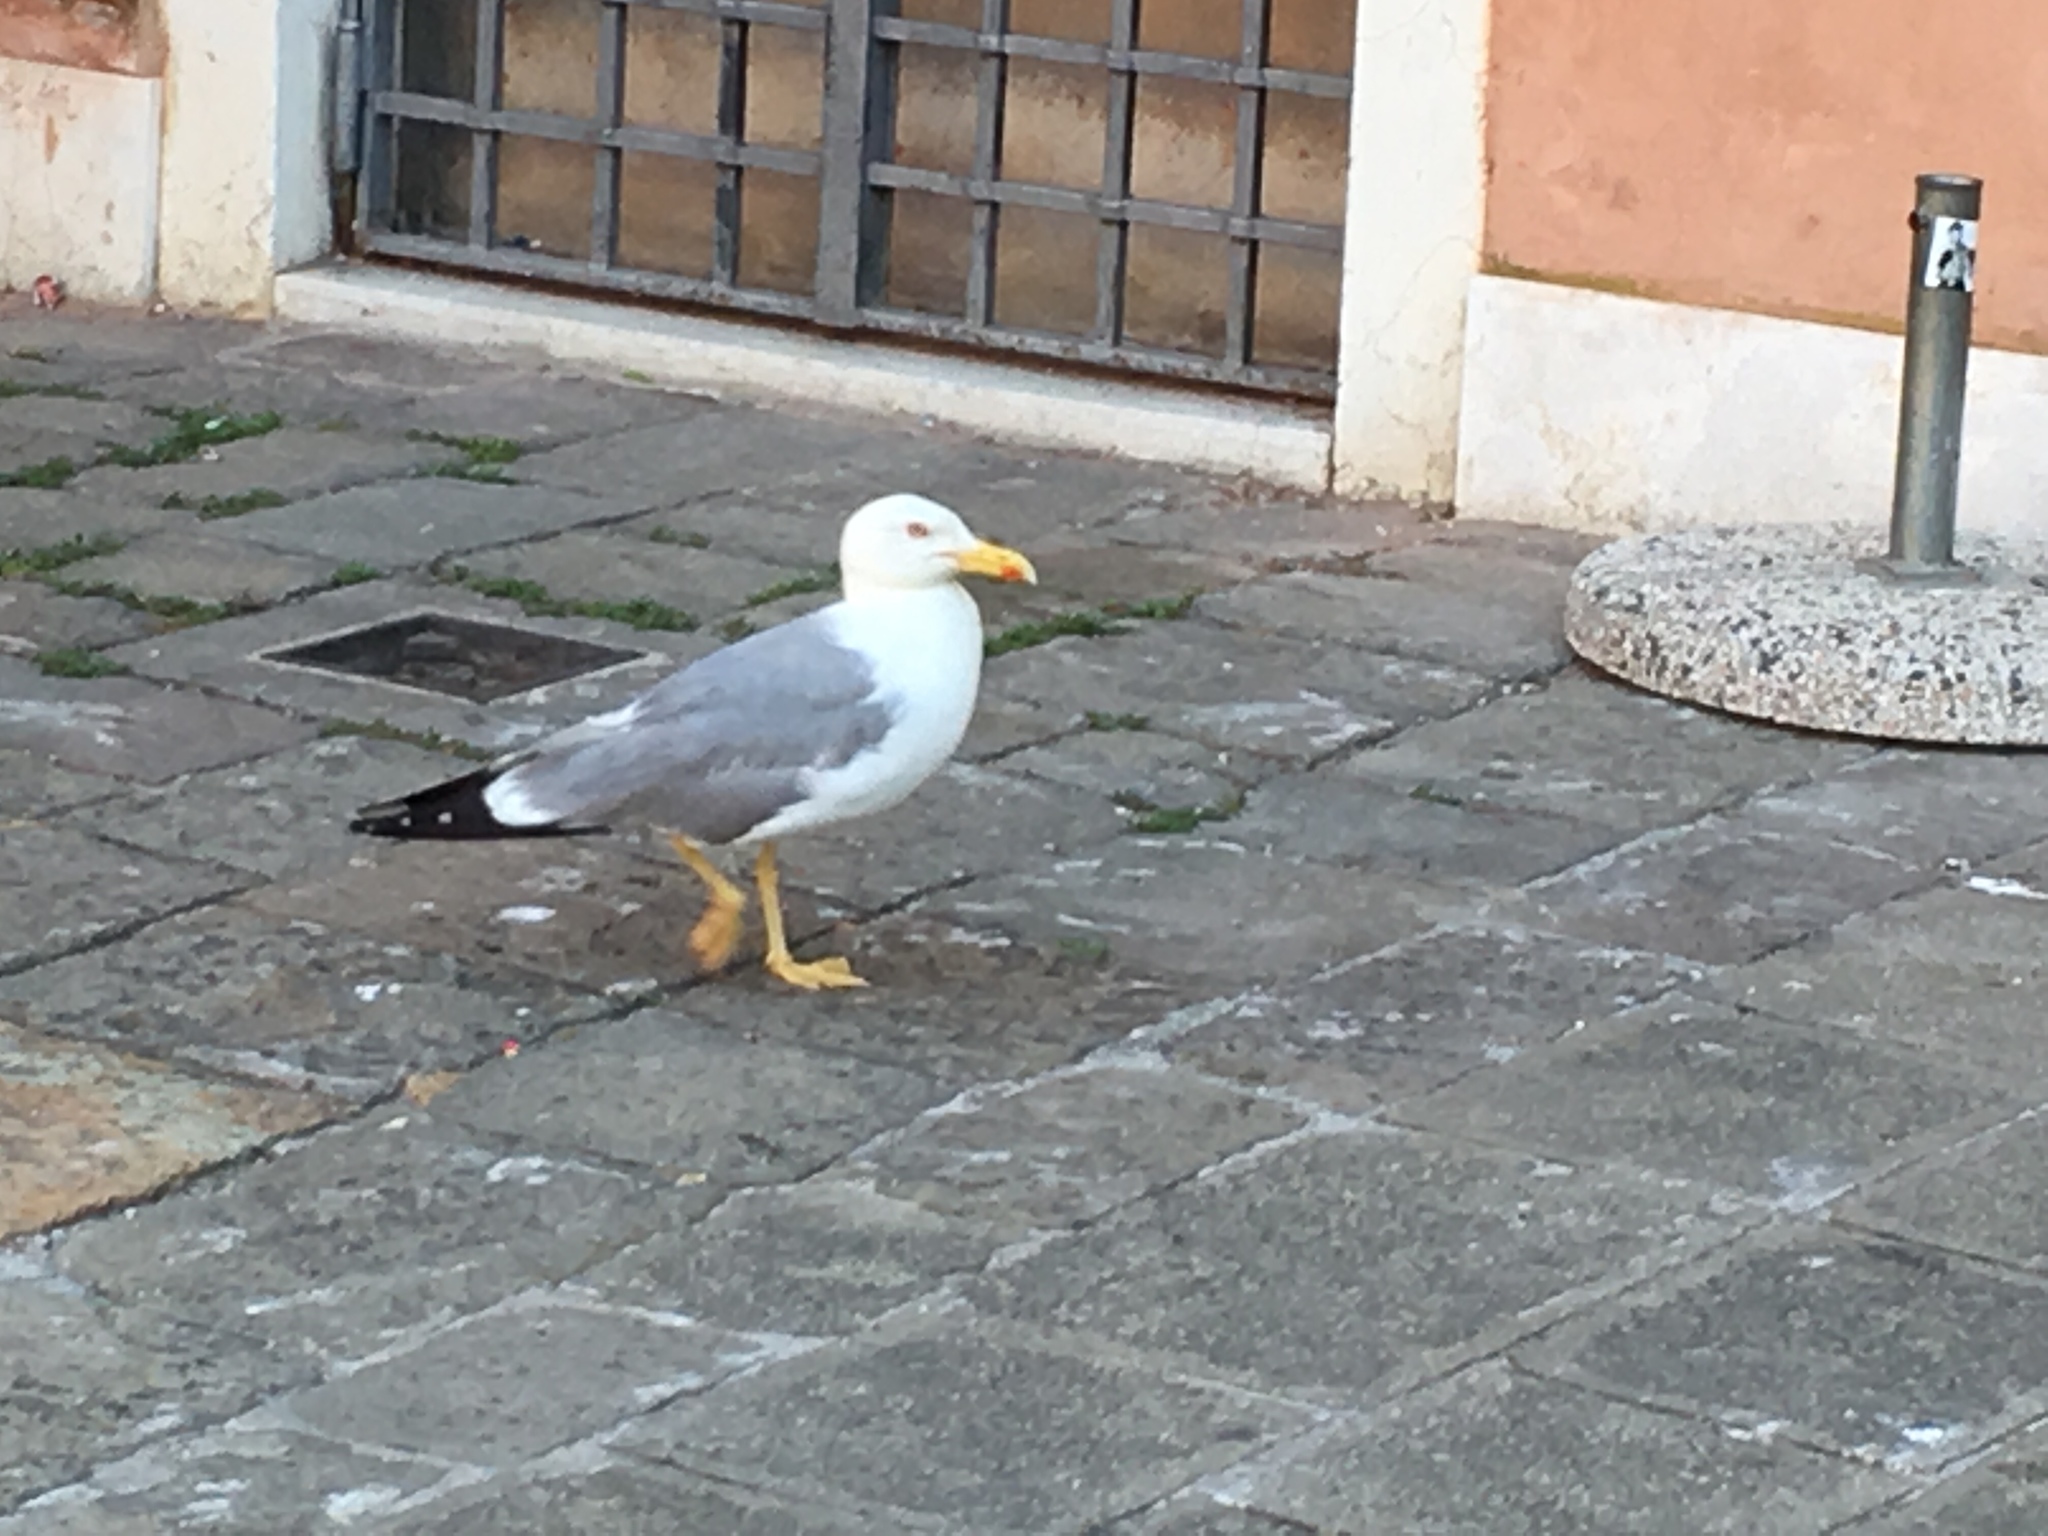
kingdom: Animalia
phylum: Chordata
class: Aves
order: Charadriiformes
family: Laridae
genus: Larus
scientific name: Larus michahellis
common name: Yellow-legged gull
